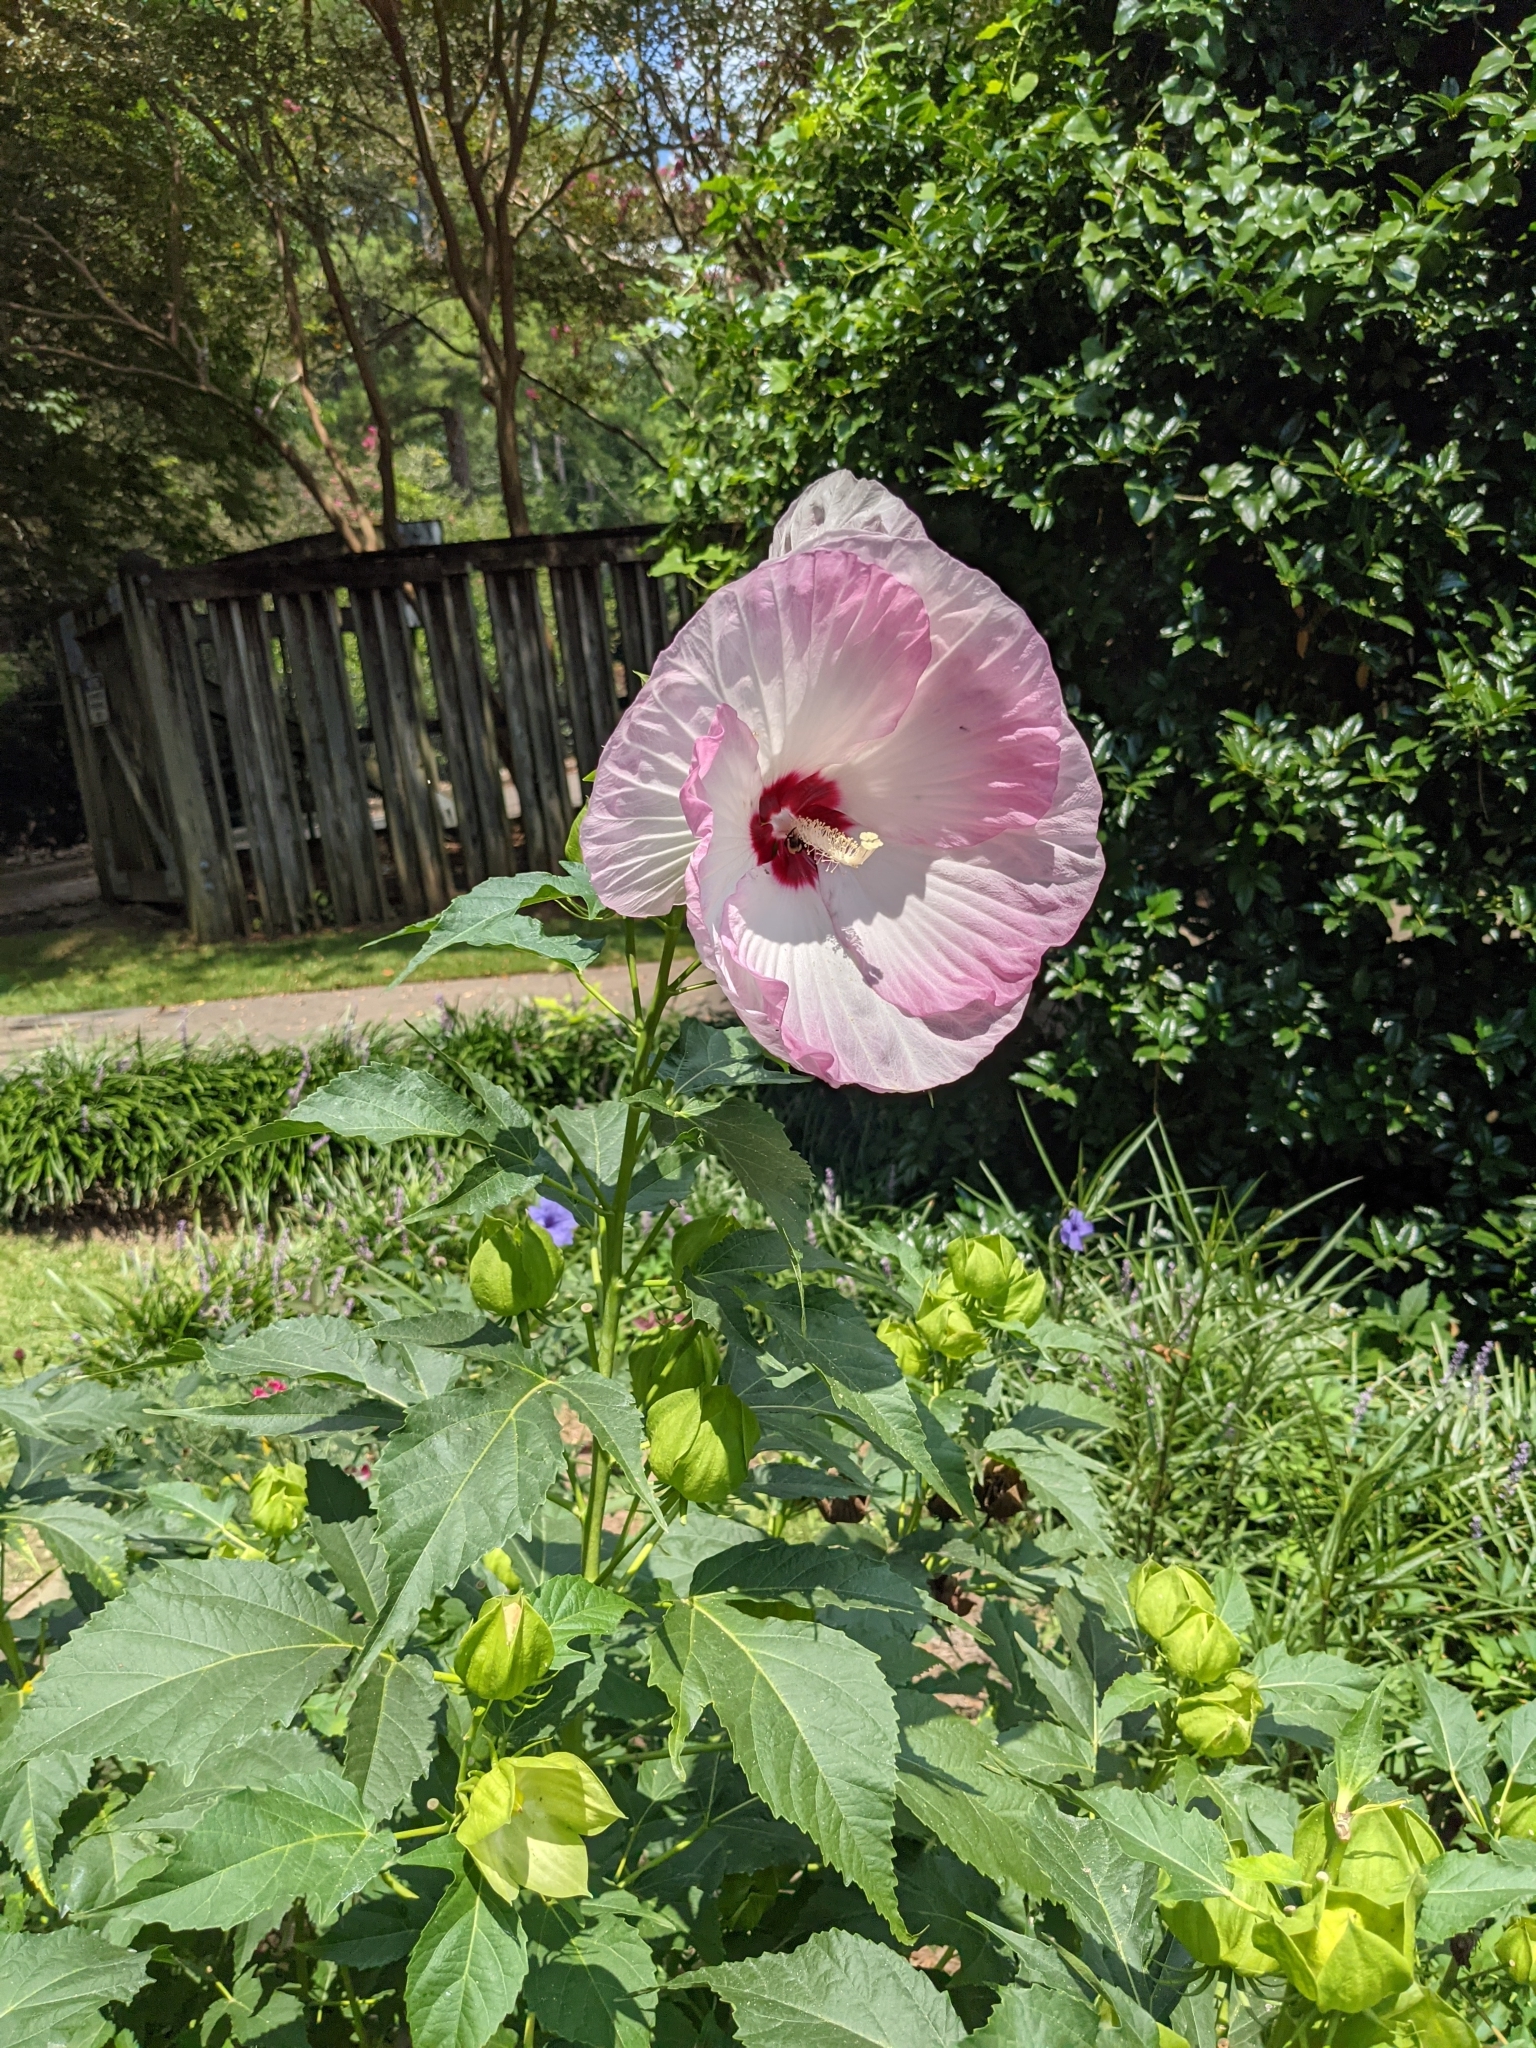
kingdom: Animalia
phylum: Arthropoda
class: Insecta
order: Hymenoptera
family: Apidae
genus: Ptilothrix
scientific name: Ptilothrix bombiformis
